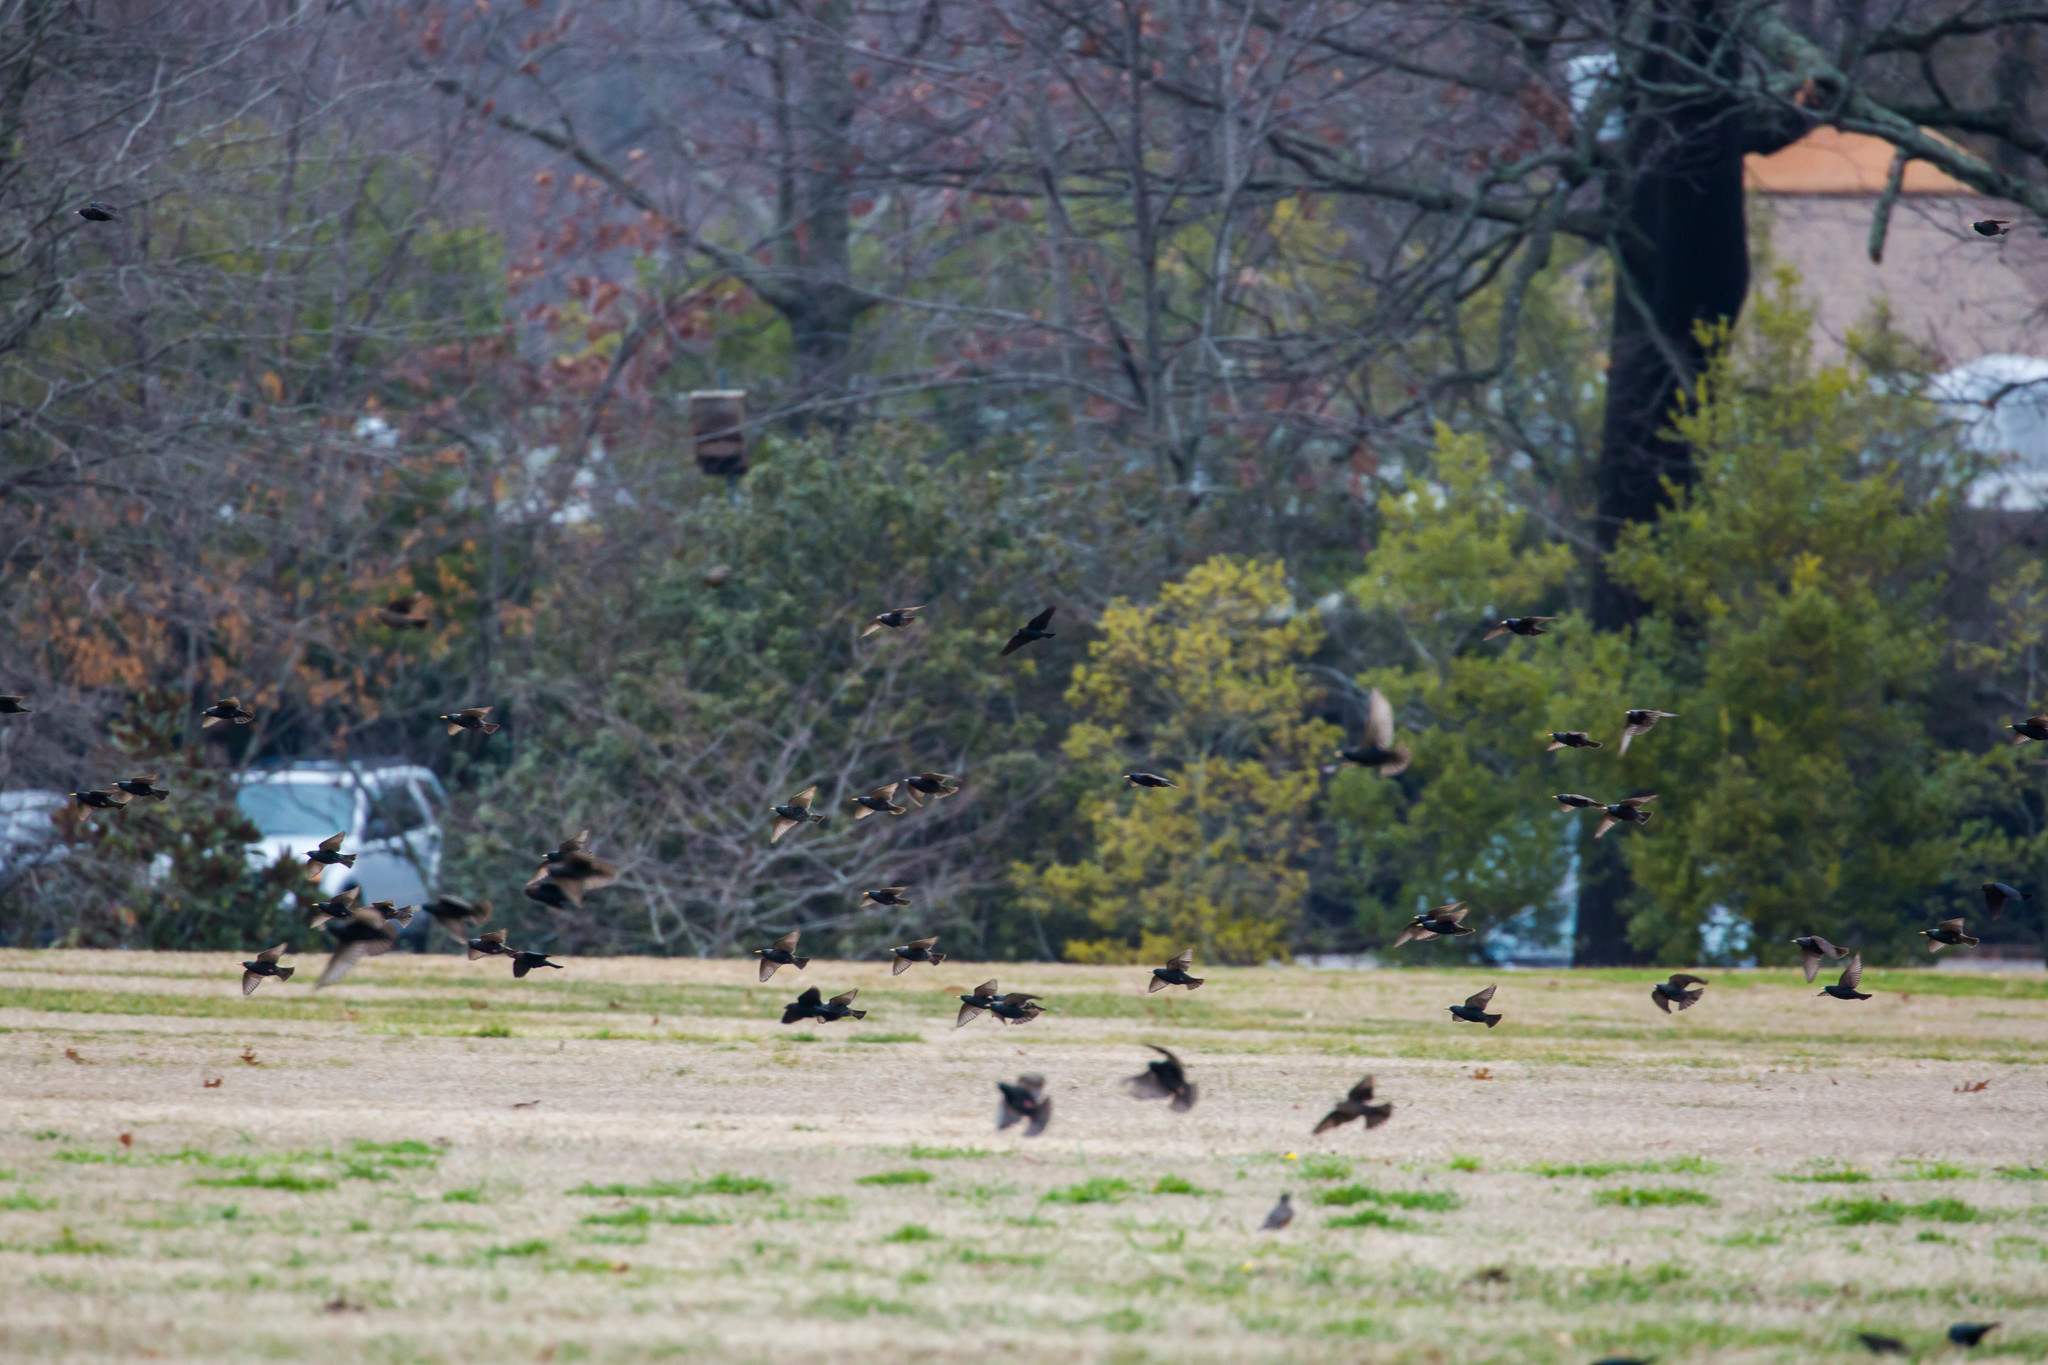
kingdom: Animalia
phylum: Chordata
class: Aves
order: Passeriformes
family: Sturnidae
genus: Sturnus
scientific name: Sturnus vulgaris
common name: Common starling
